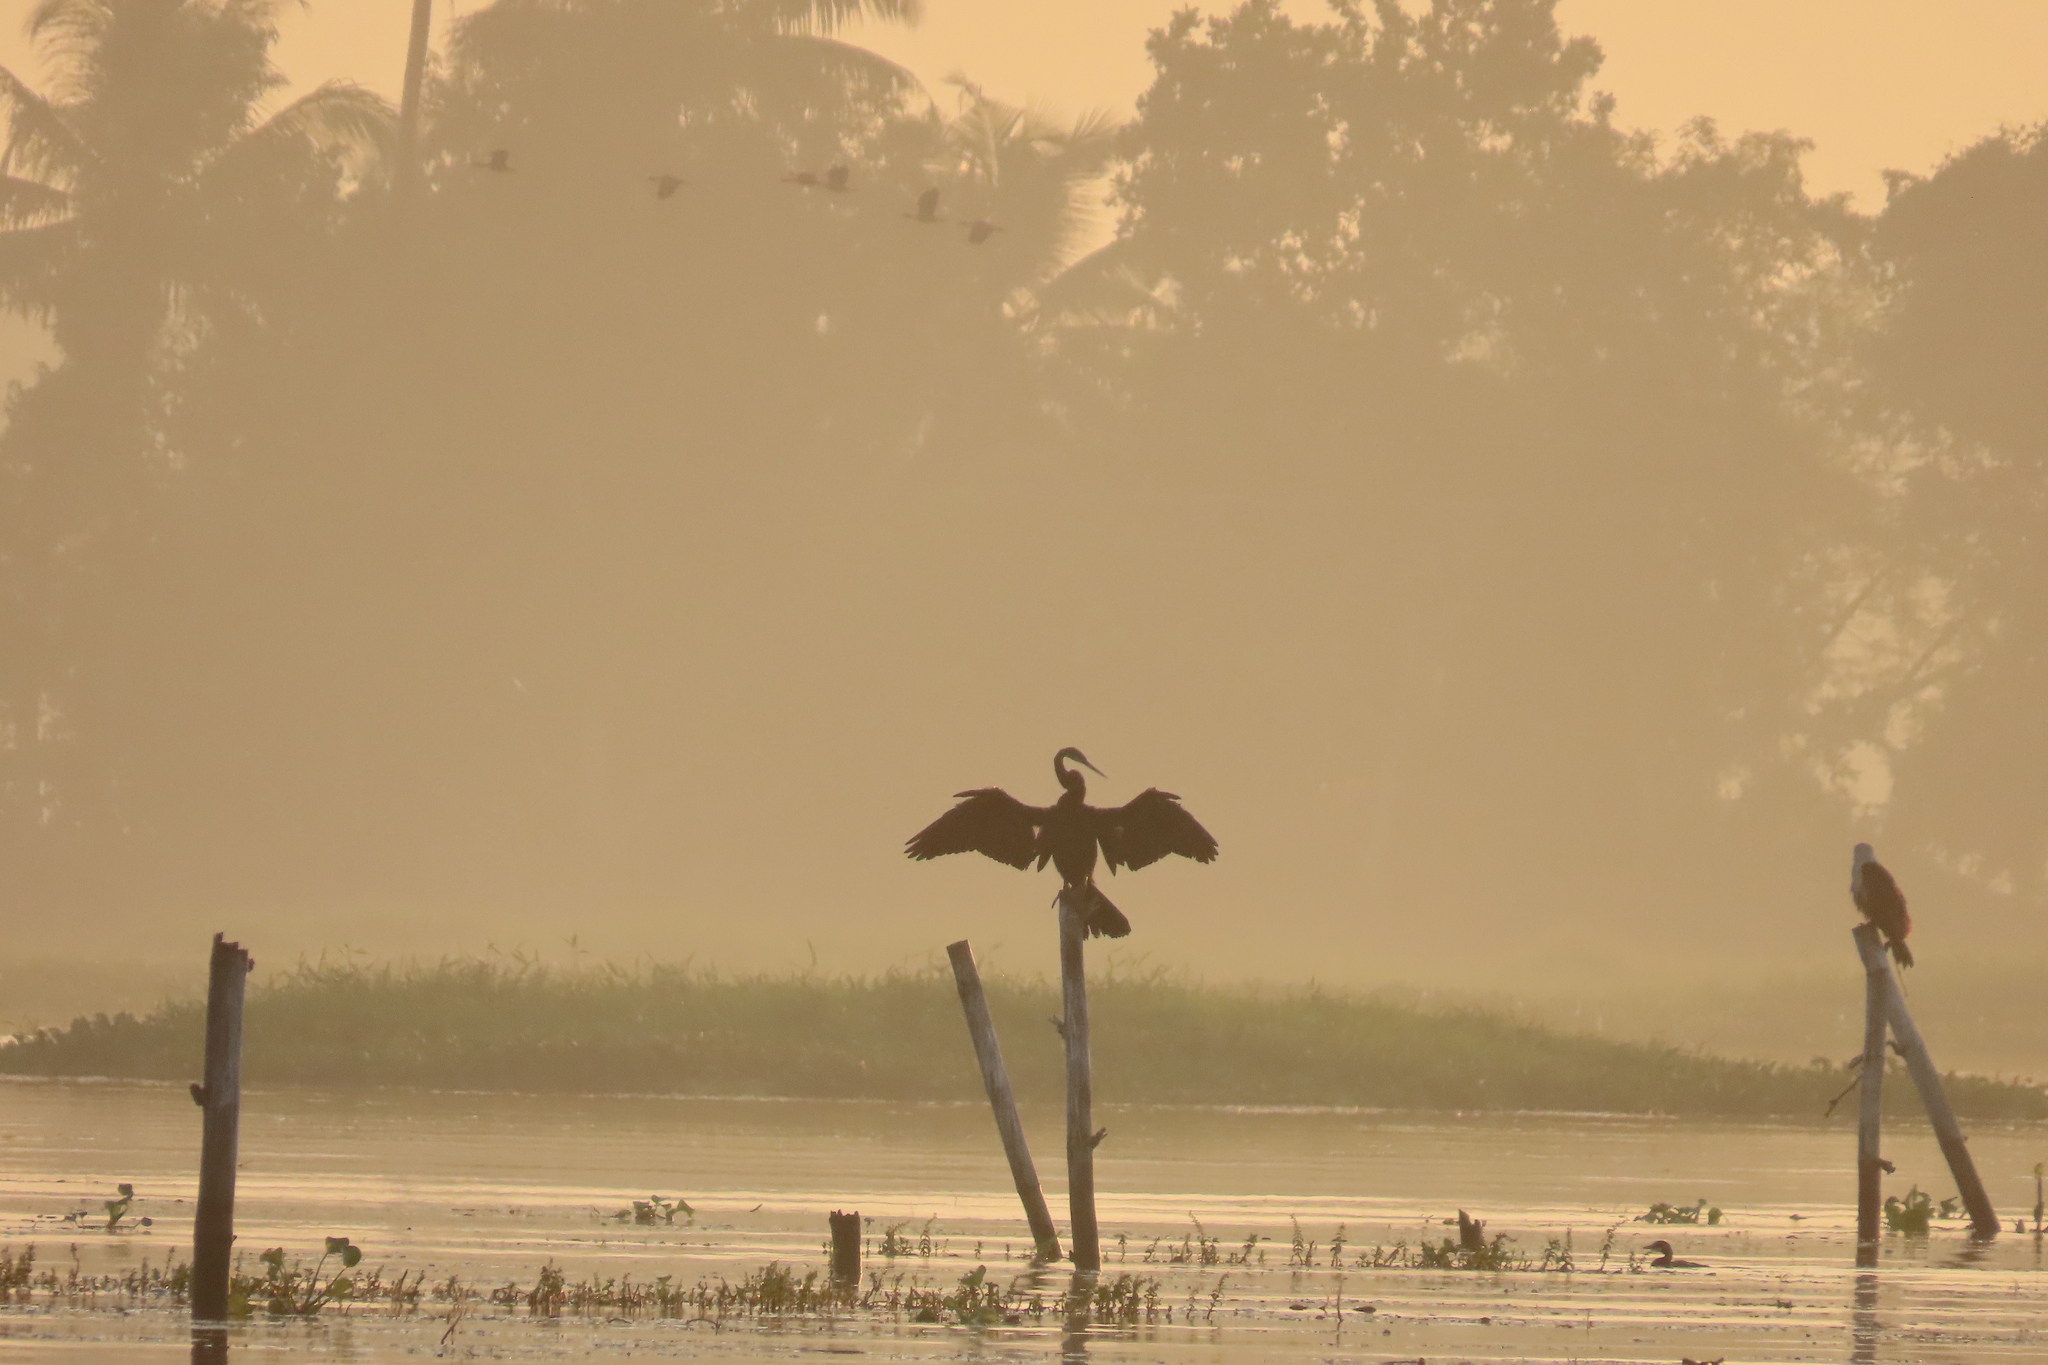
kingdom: Animalia
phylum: Chordata
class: Aves
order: Suliformes
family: Anhingidae
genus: Anhinga
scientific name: Anhinga melanogaster
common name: Oriental darter
